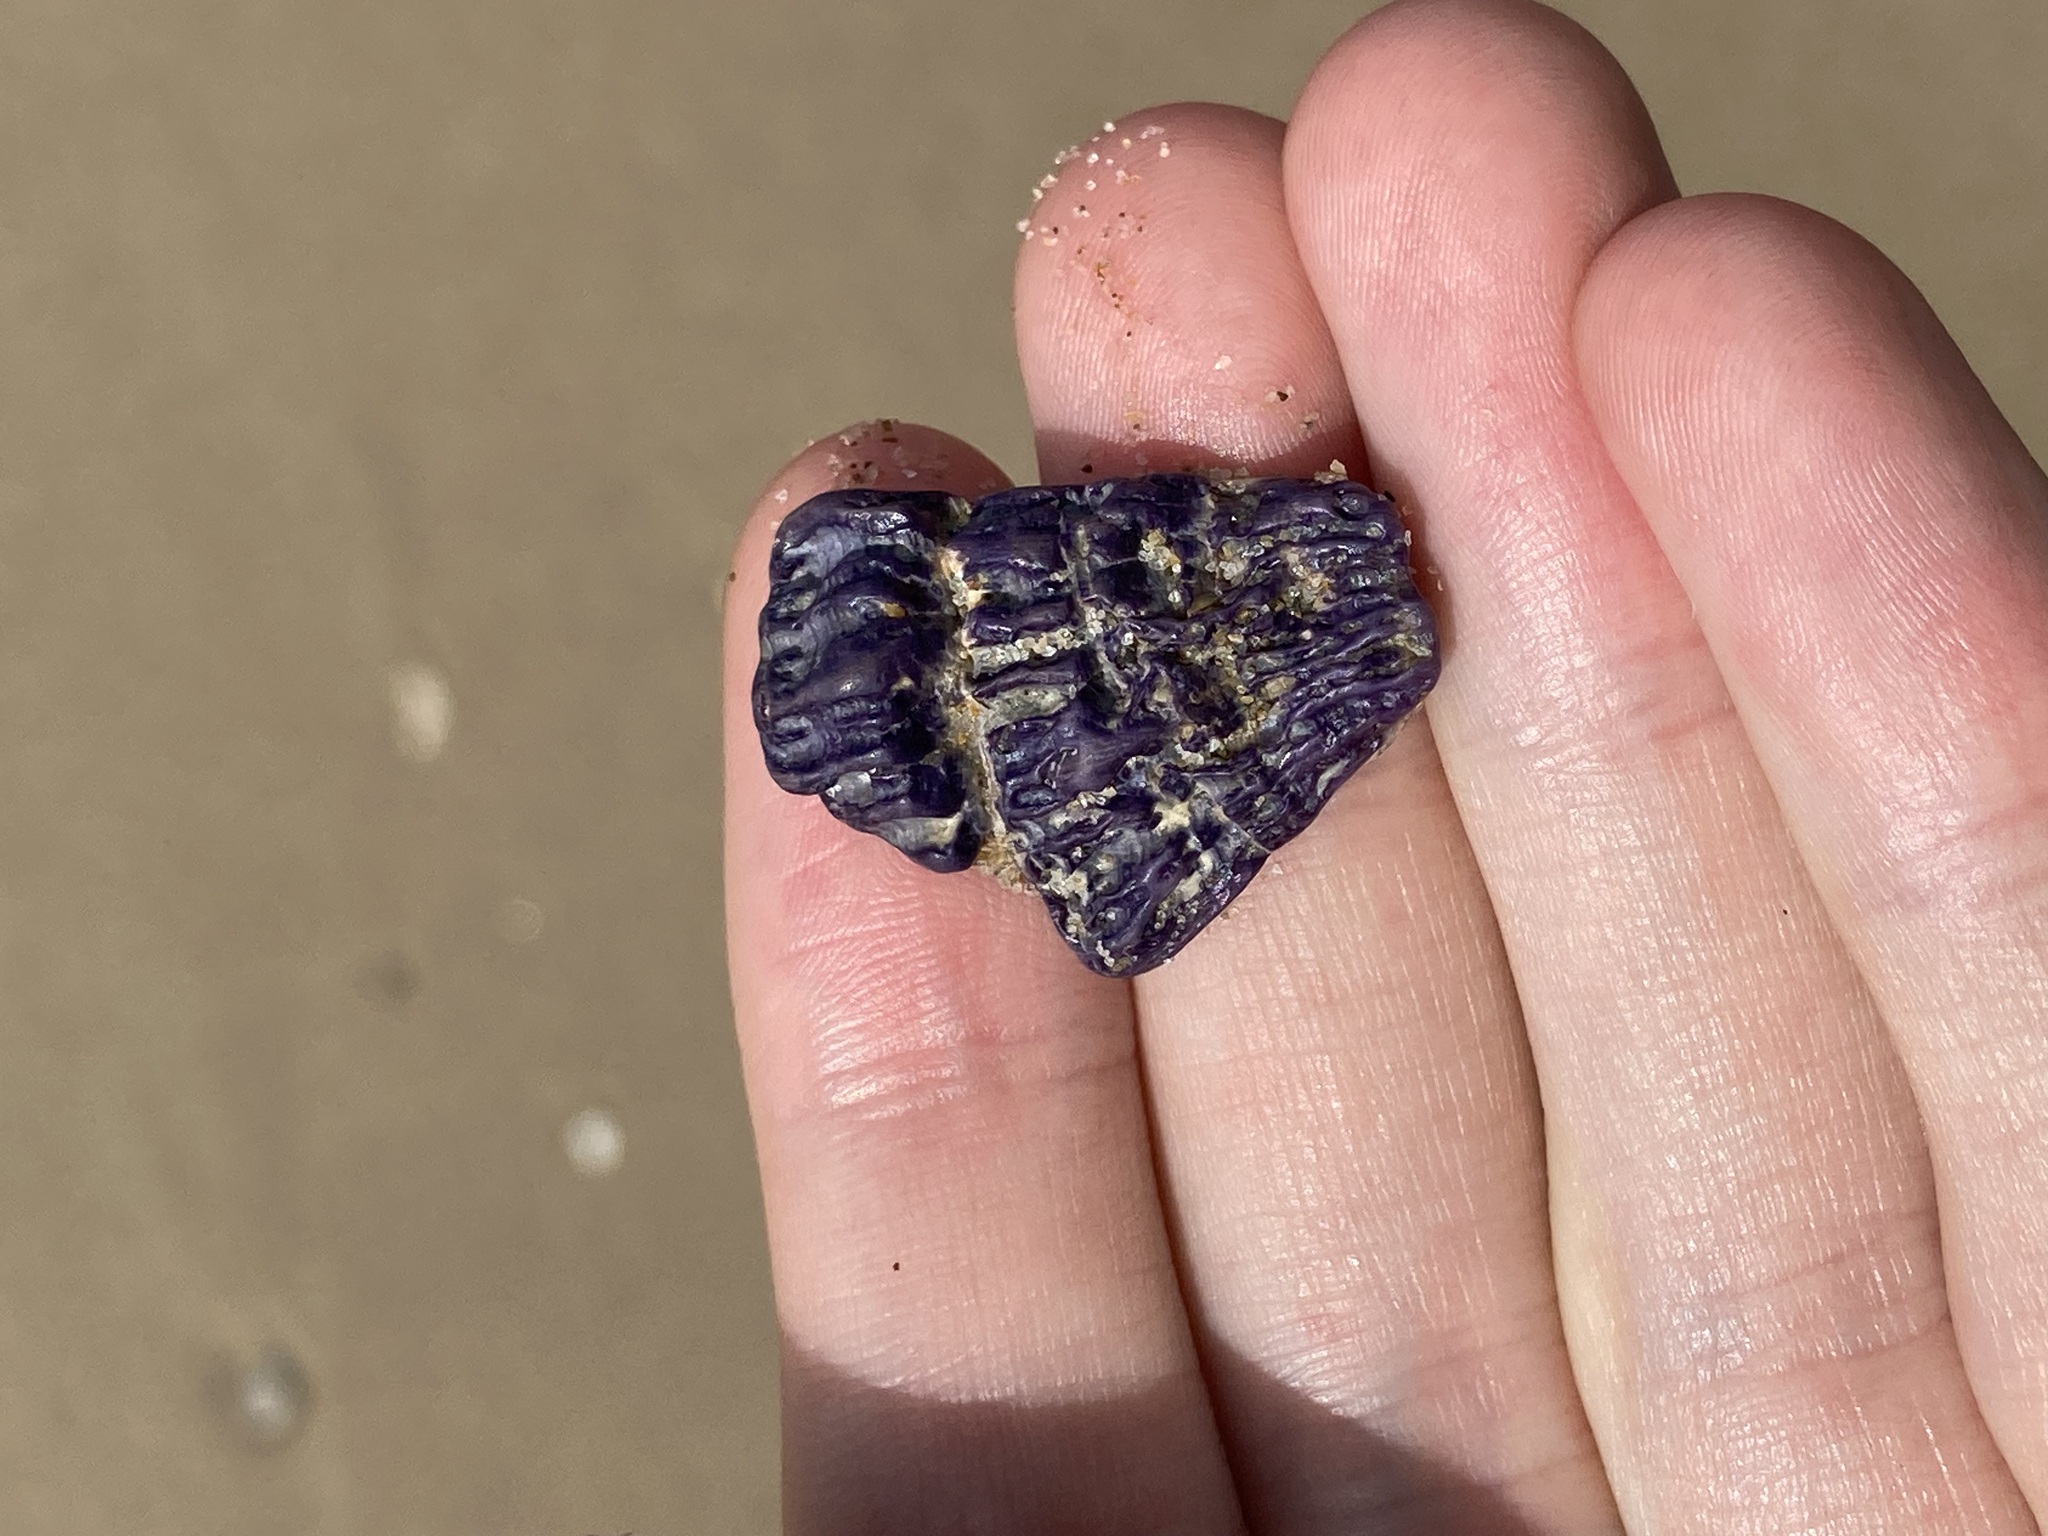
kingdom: Animalia
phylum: Arthropoda
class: Maxillopoda
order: Sessilia
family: Austrobalanidae
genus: Austrobalanus
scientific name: Austrobalanus imperator
